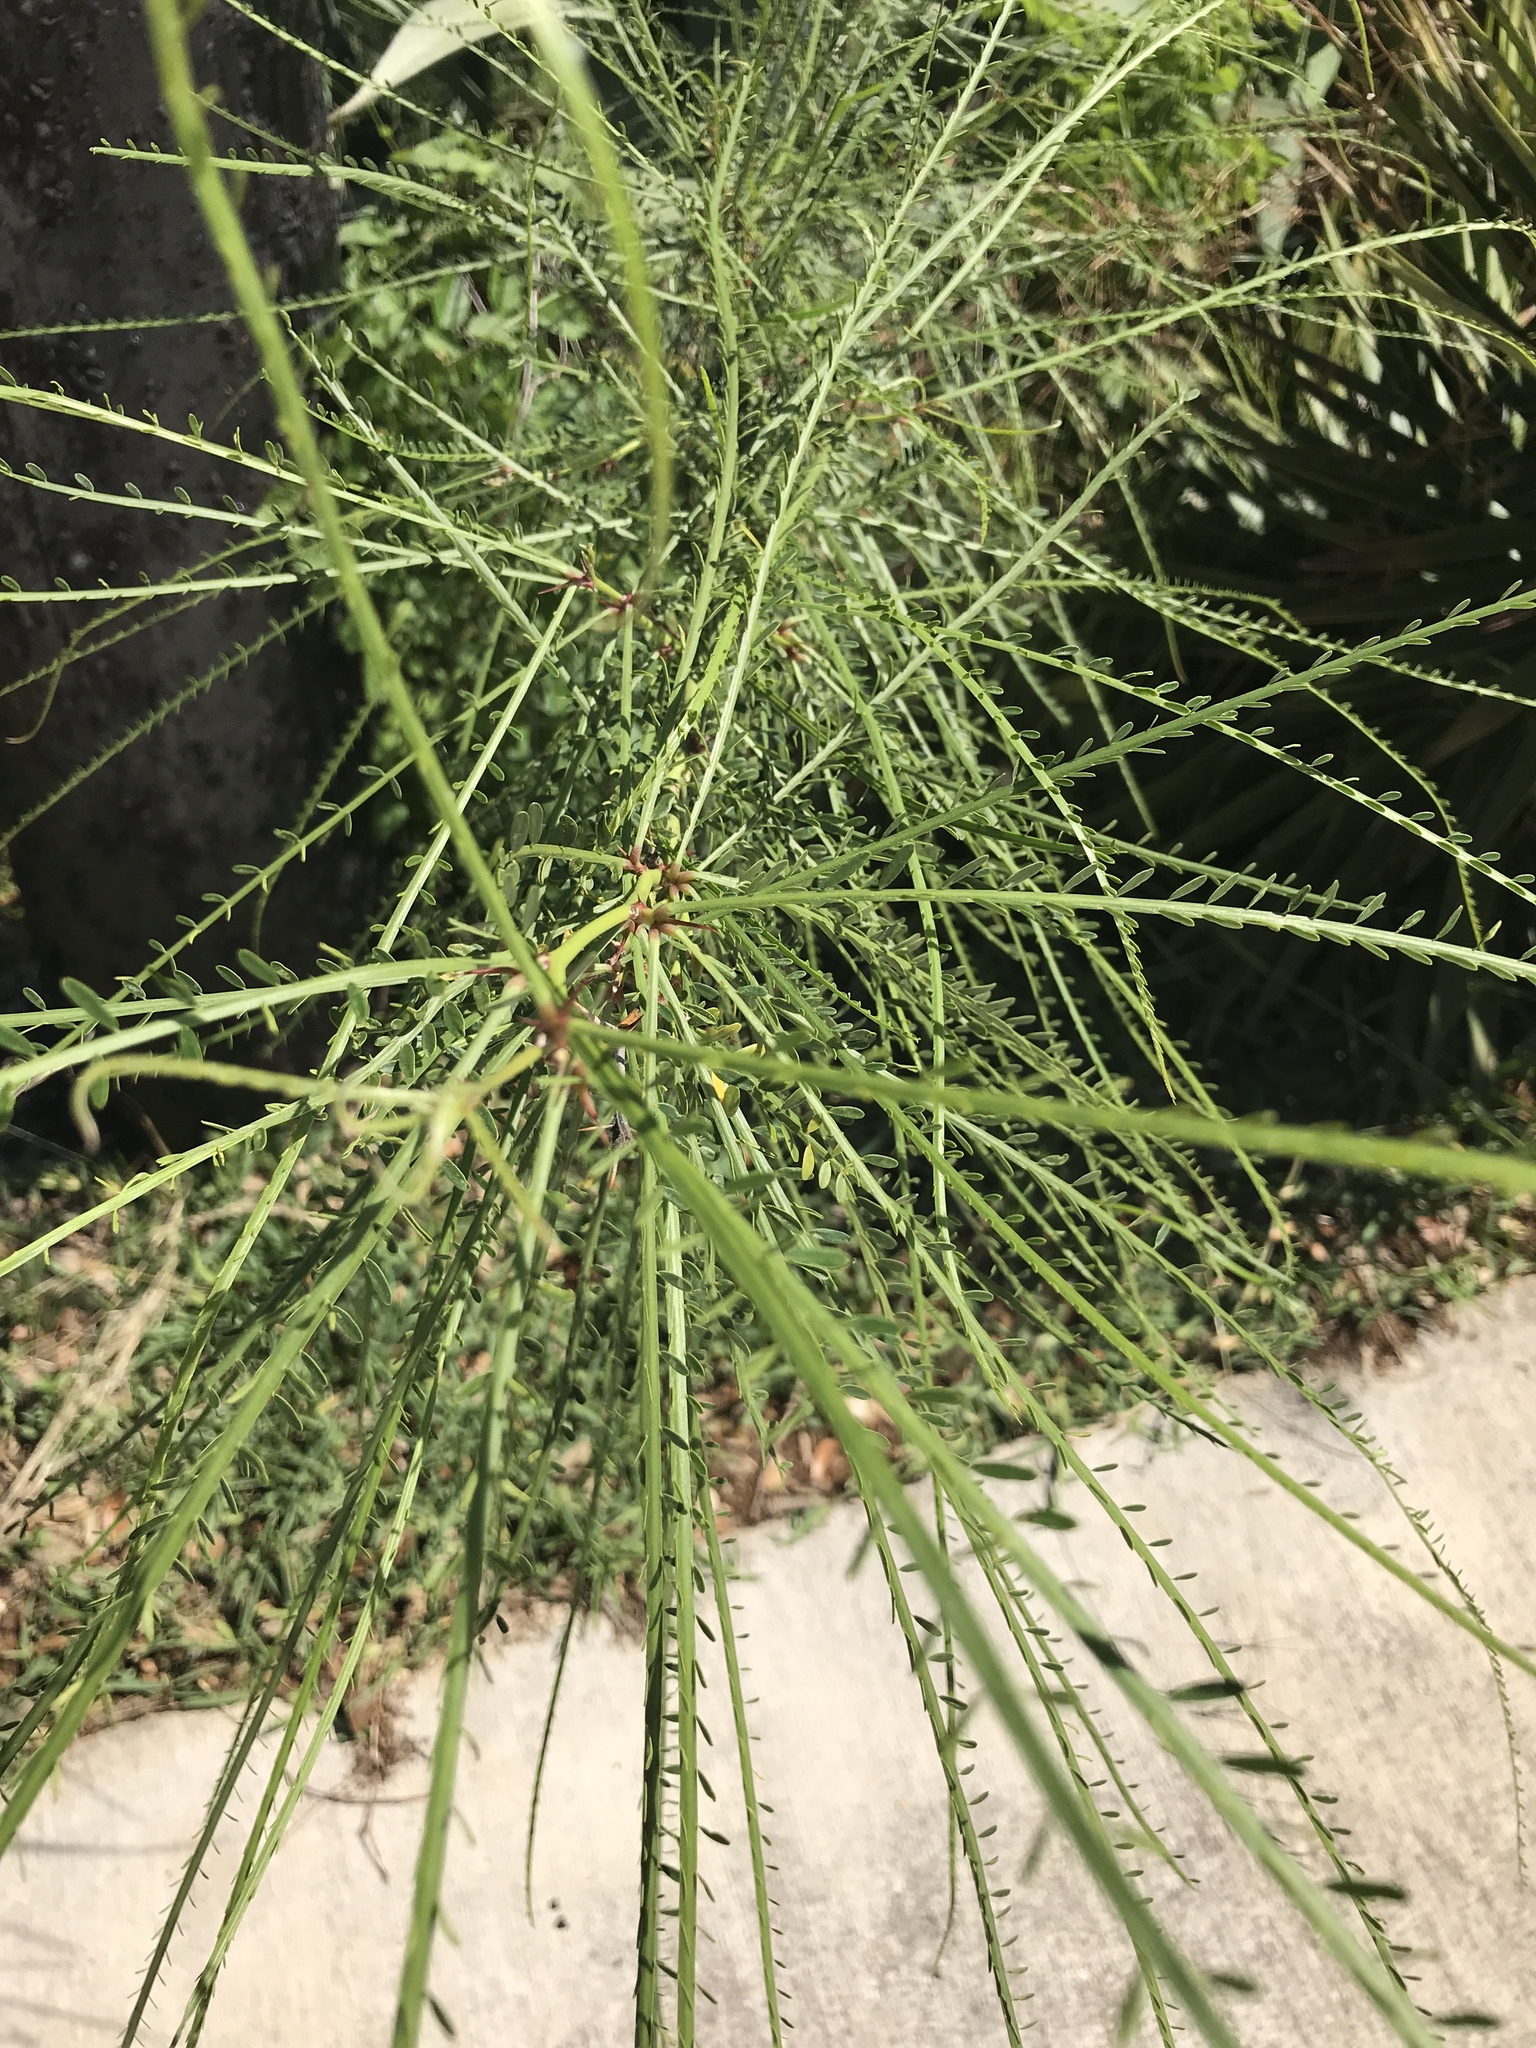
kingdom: Plantae
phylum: Tracheophyta
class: Magnoliopsida
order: Fabales
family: Fabaceae
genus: Parkinsonia
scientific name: Parkinsonia aculeata
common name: Jerusalem thorn
